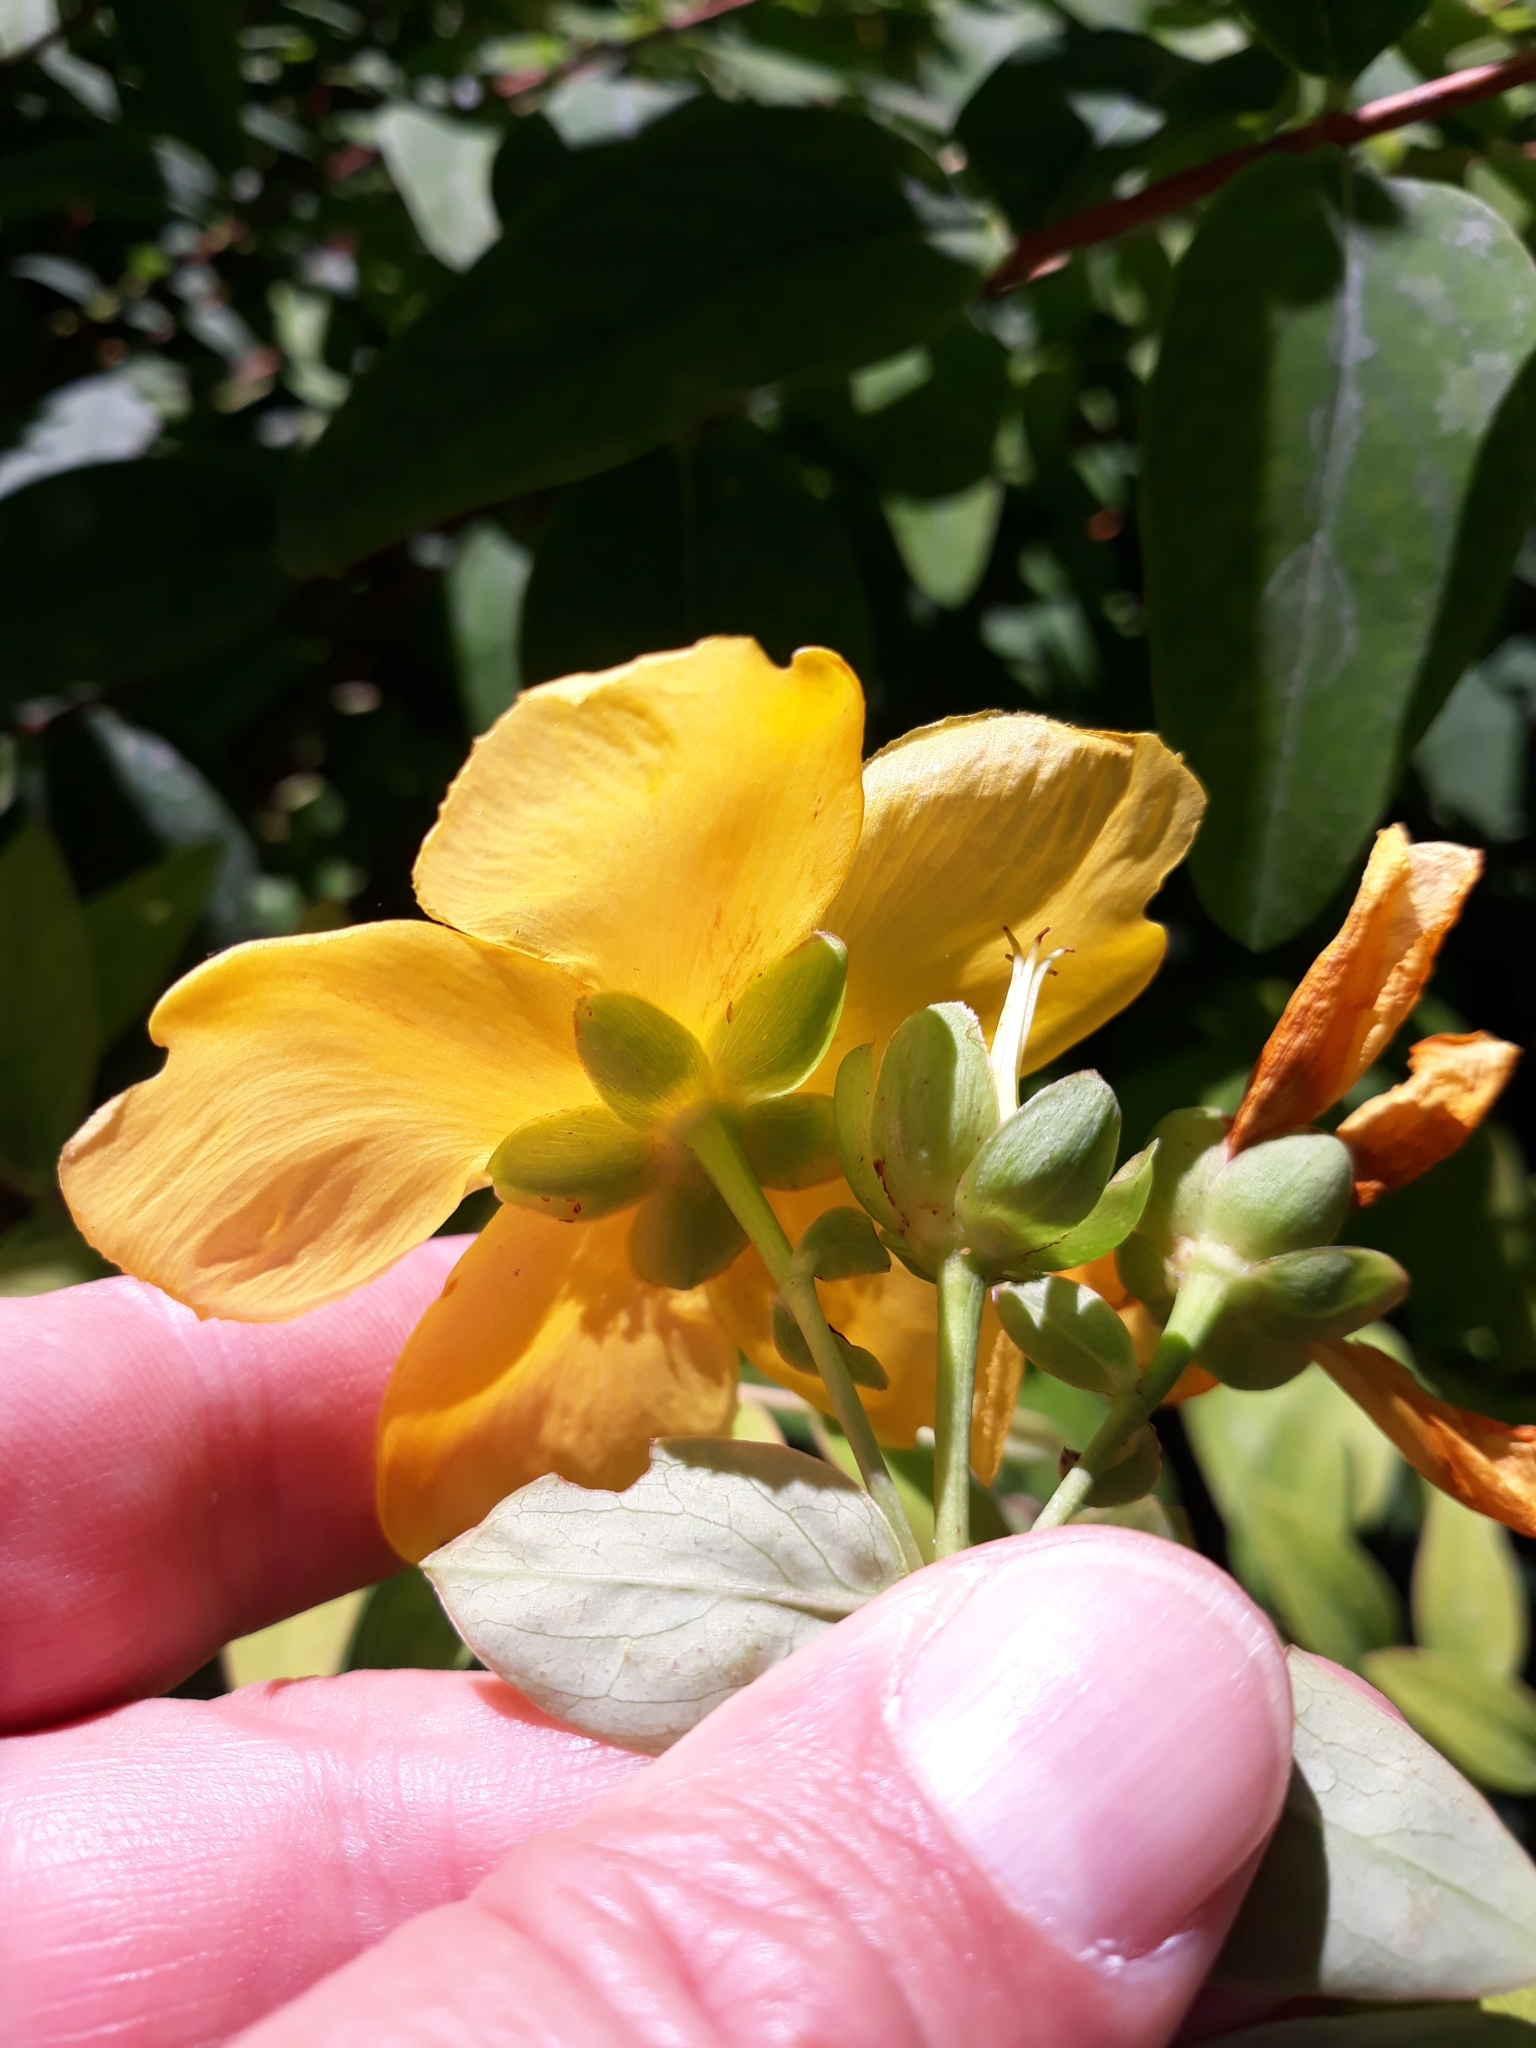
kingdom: Plantae
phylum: Tracheophyta
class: Magnoliopsida
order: Malpighiales
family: Hypericaceae
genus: Hypericum
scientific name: Hypericum hidcoteense
